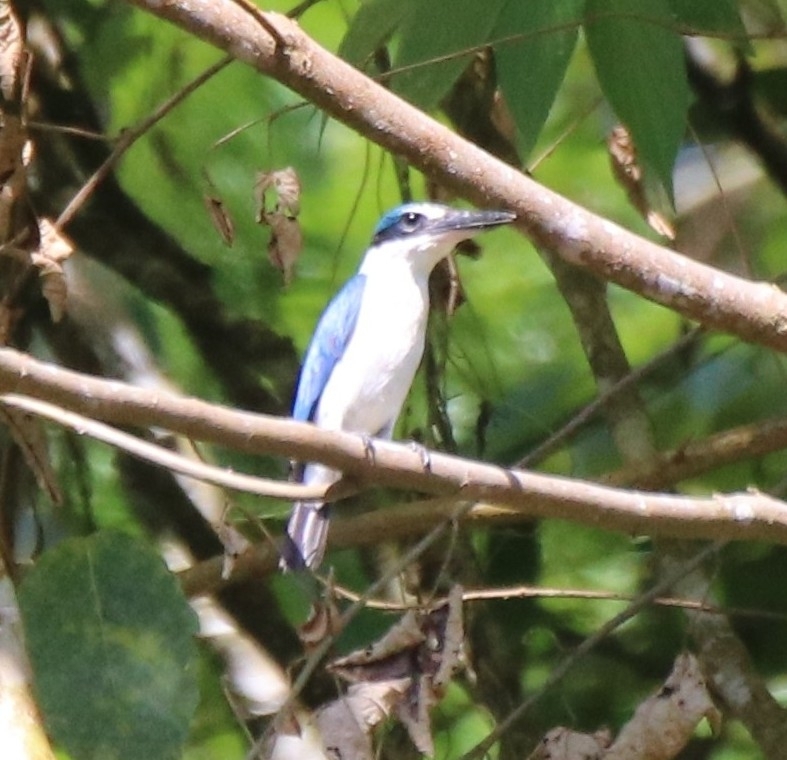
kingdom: Animalia
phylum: Chordata
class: Aves
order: Coraciiformes
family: Alcedinidae
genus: Todiramphus
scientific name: Todiramphus chloris
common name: Collared kingfisher
